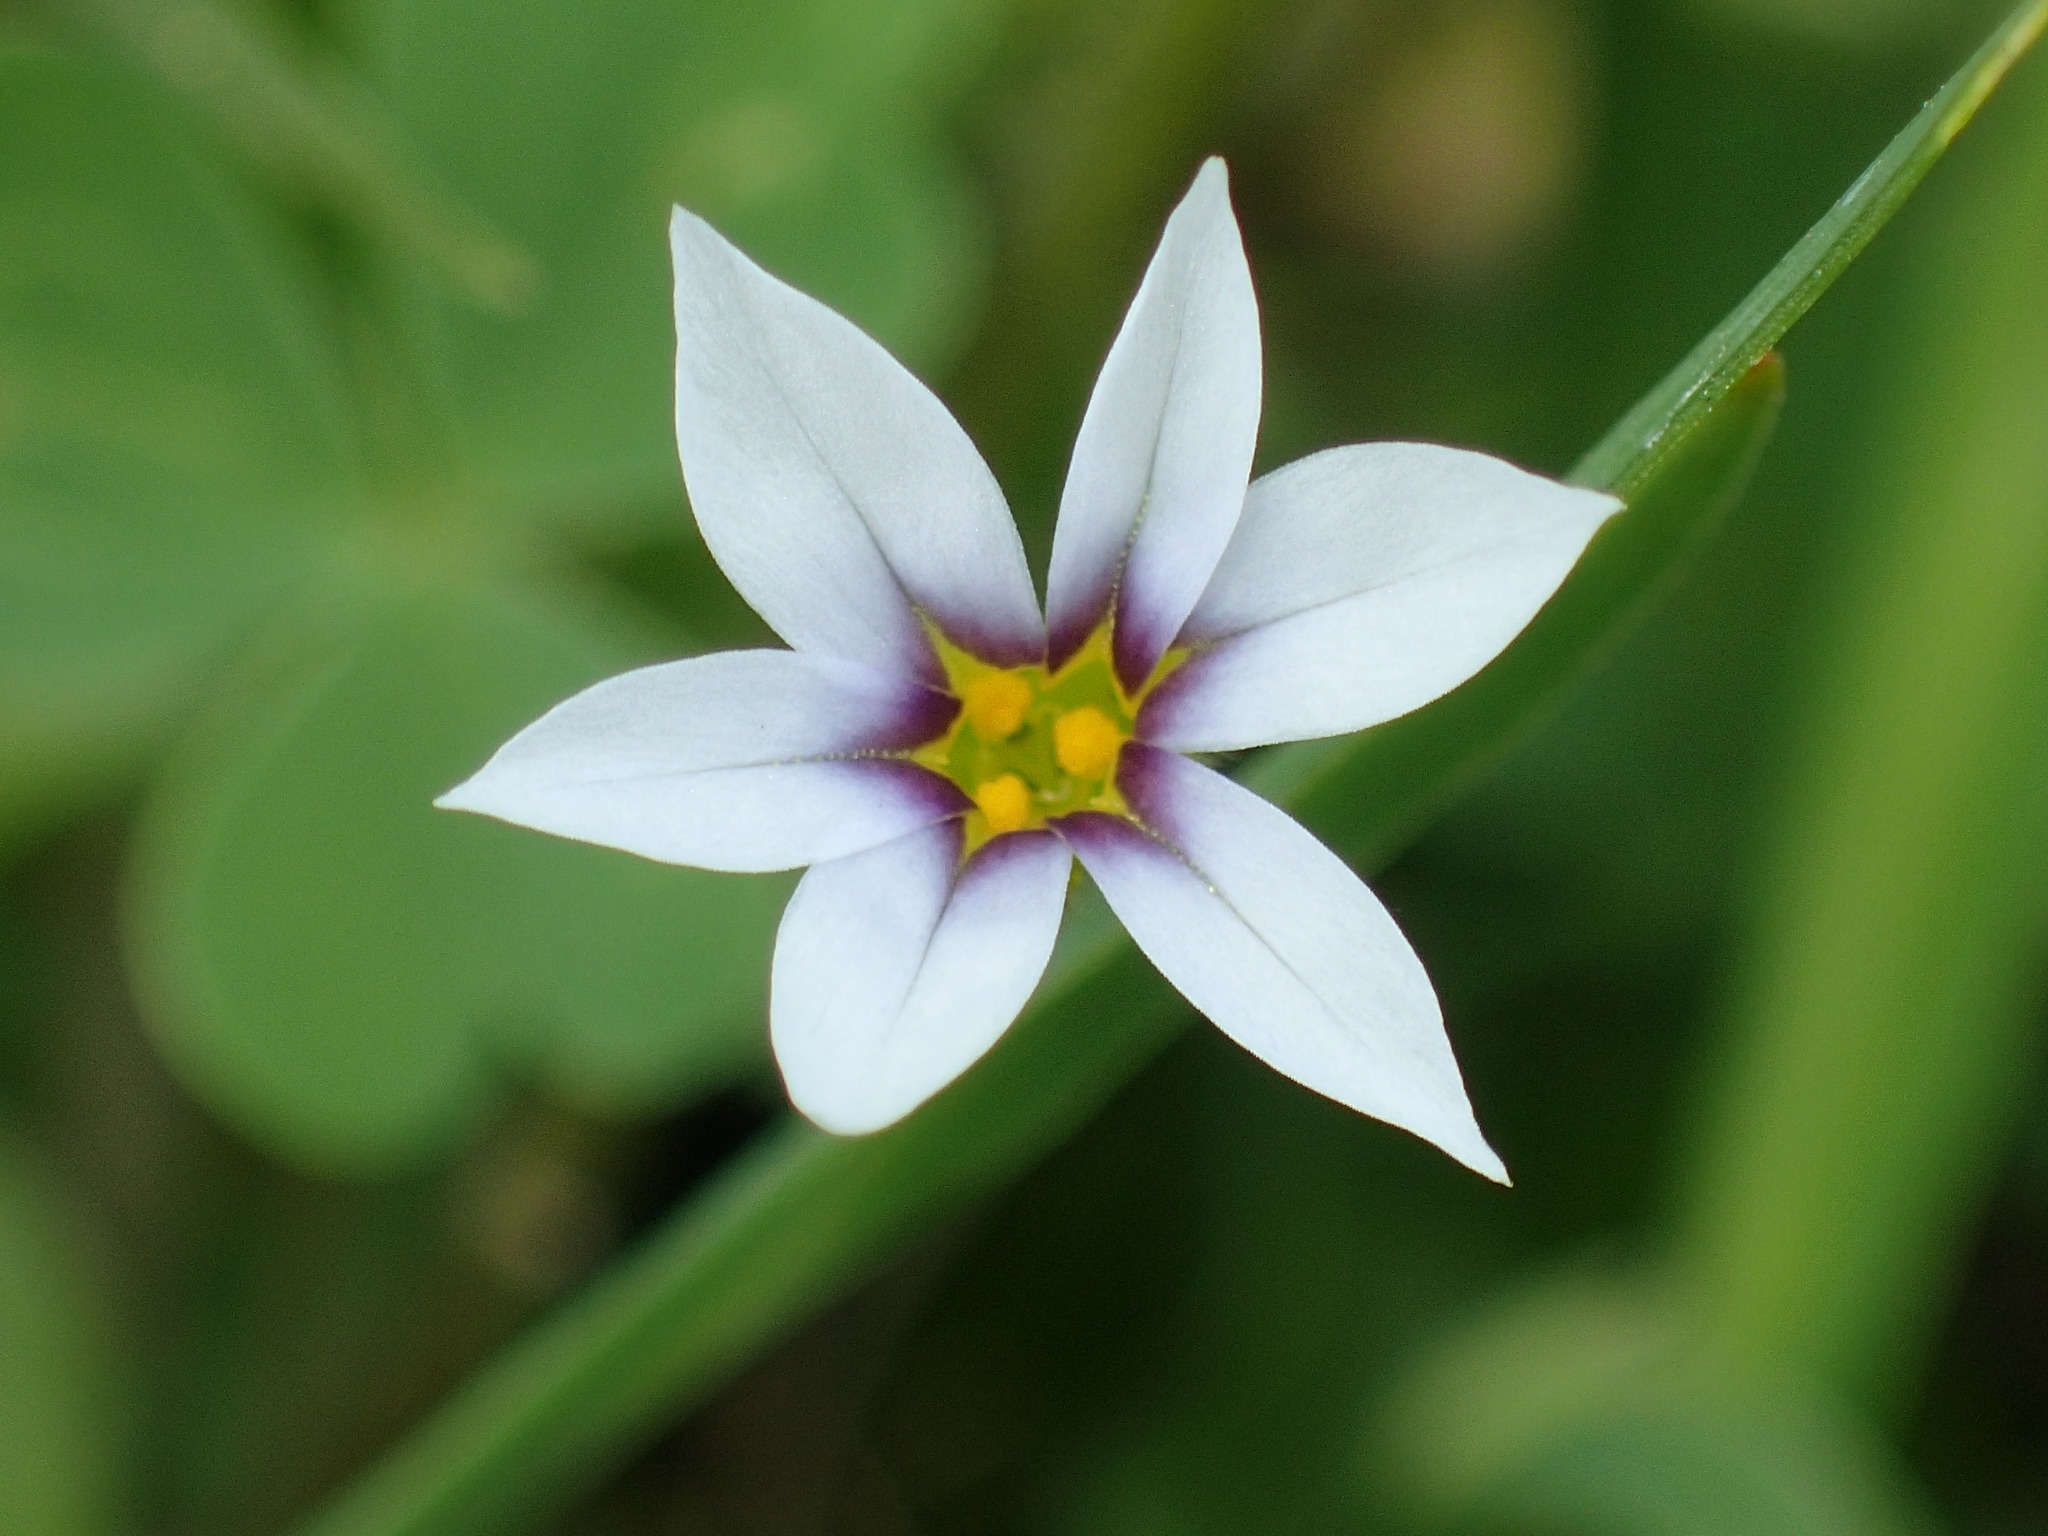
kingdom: Plantae
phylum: Tracheophyta
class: Liliopsida
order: Asparagales
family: Iridaceae
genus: Sisyrinchium
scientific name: Sisyrinchium micranthum
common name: Bermuda pigroot
